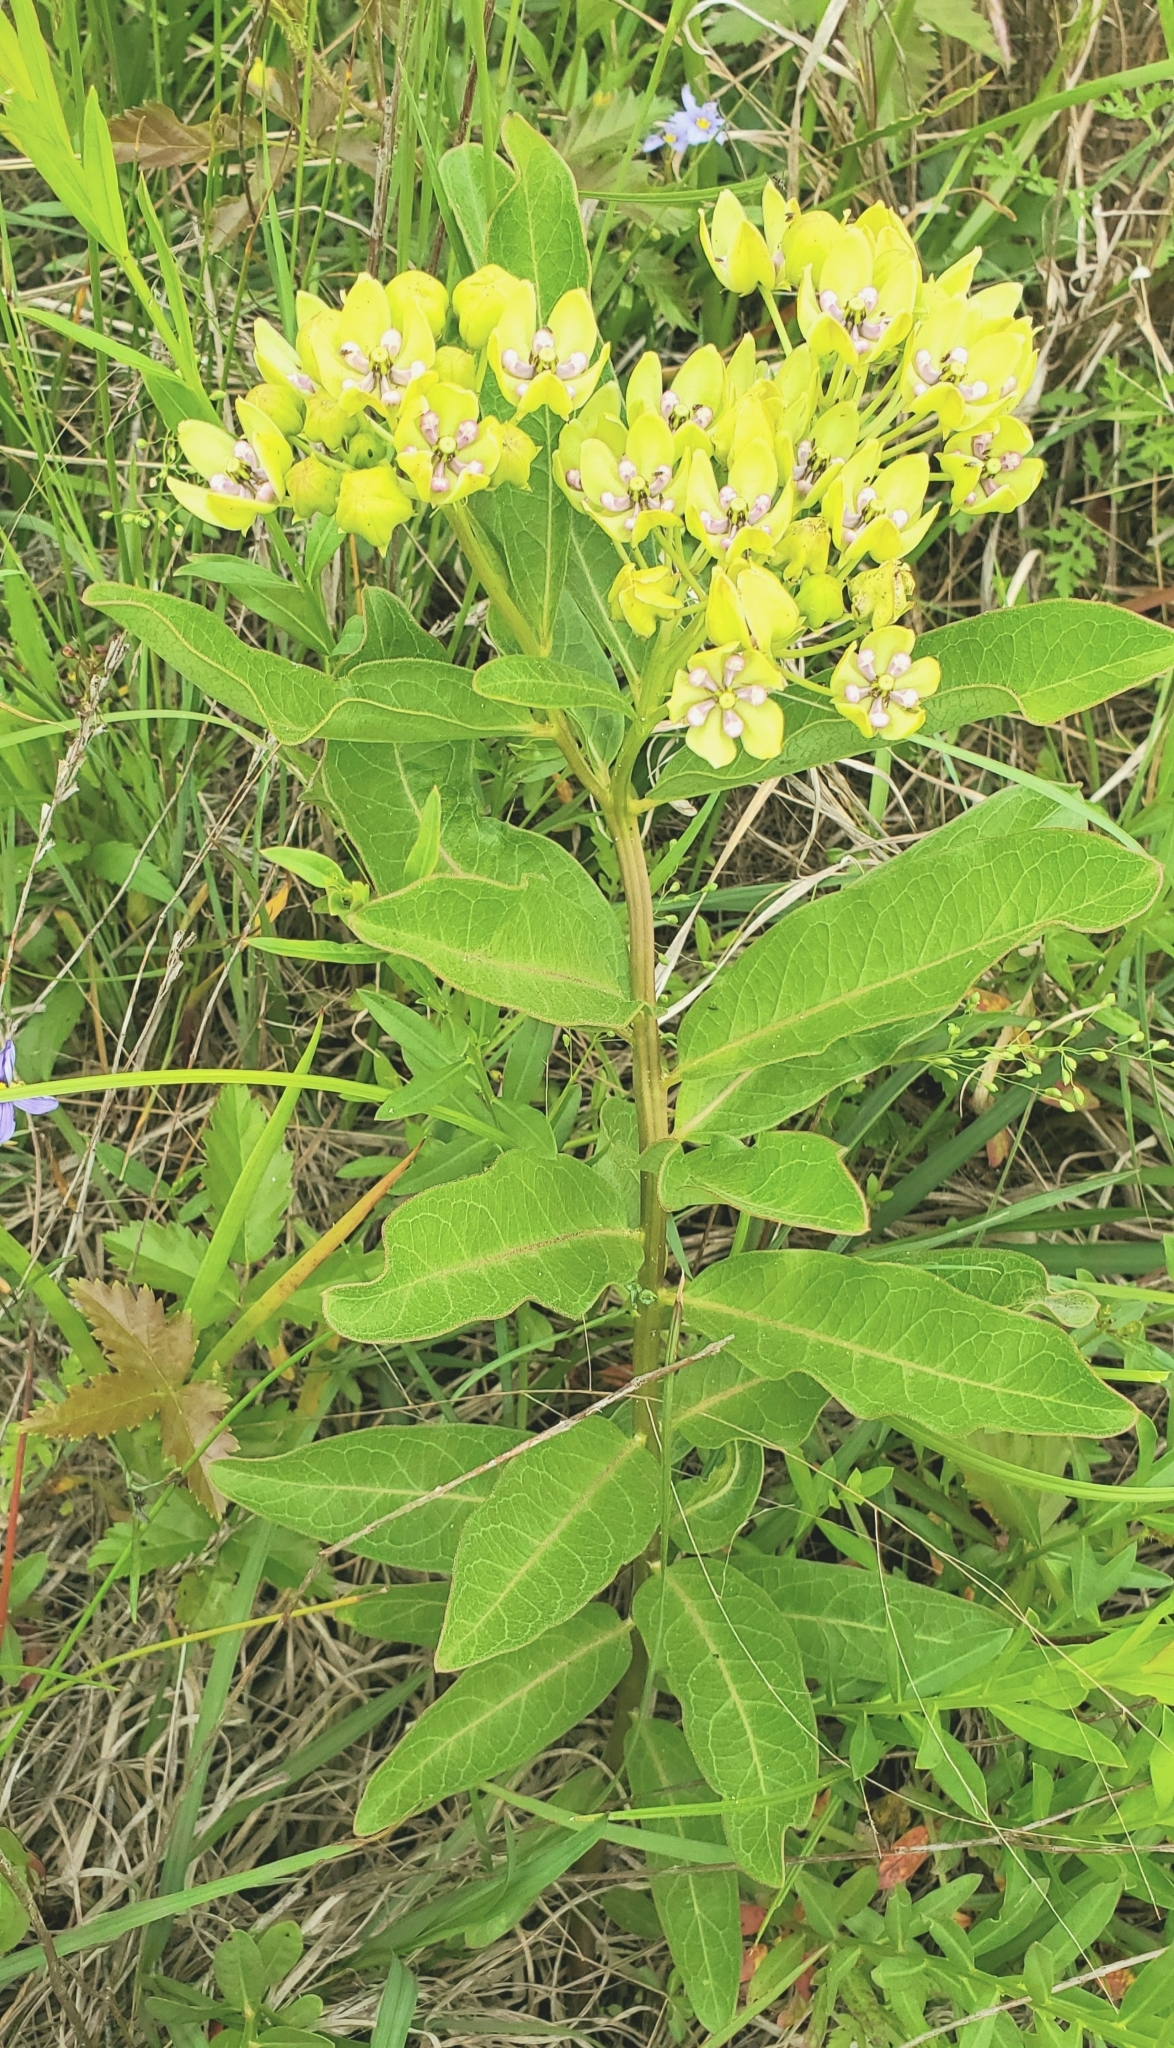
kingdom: Plantae
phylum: Tracheophyta
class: Magnoliopsida
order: Gentianales
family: Apocynaceae
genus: Asclepias
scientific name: Asclepias viridis
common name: Antelope-horns
